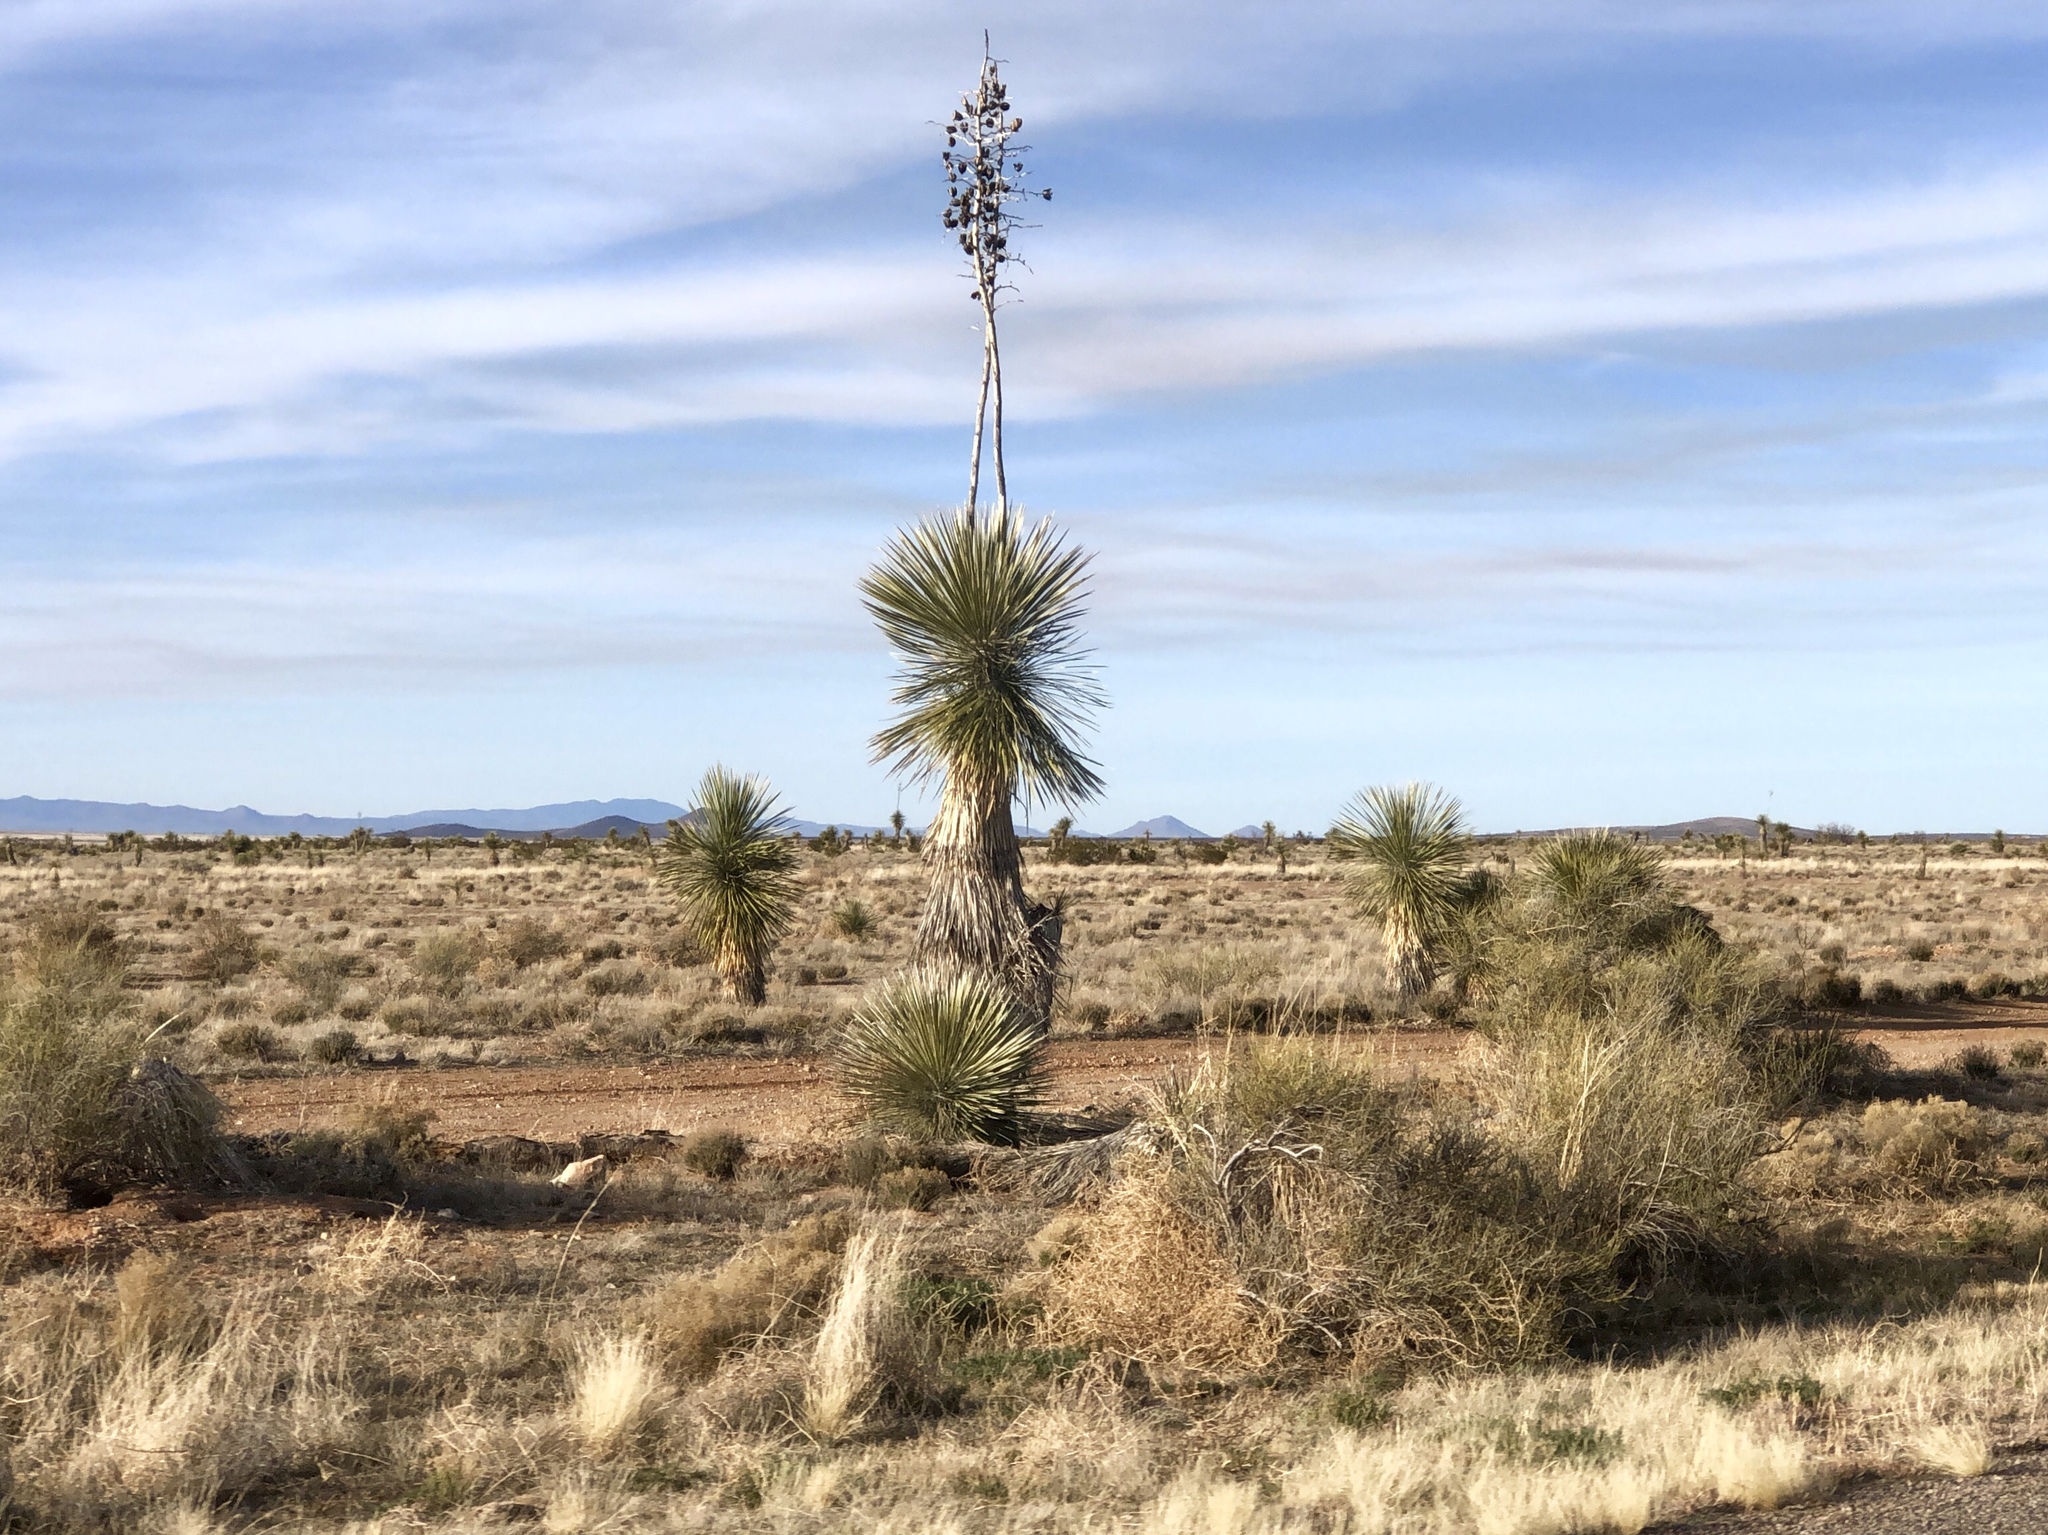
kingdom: Plantae
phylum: Tracheophyta
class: Liliopsida
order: Asparagales
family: Asparagaceae
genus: Yucca
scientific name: Yucca elata
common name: Palmella
